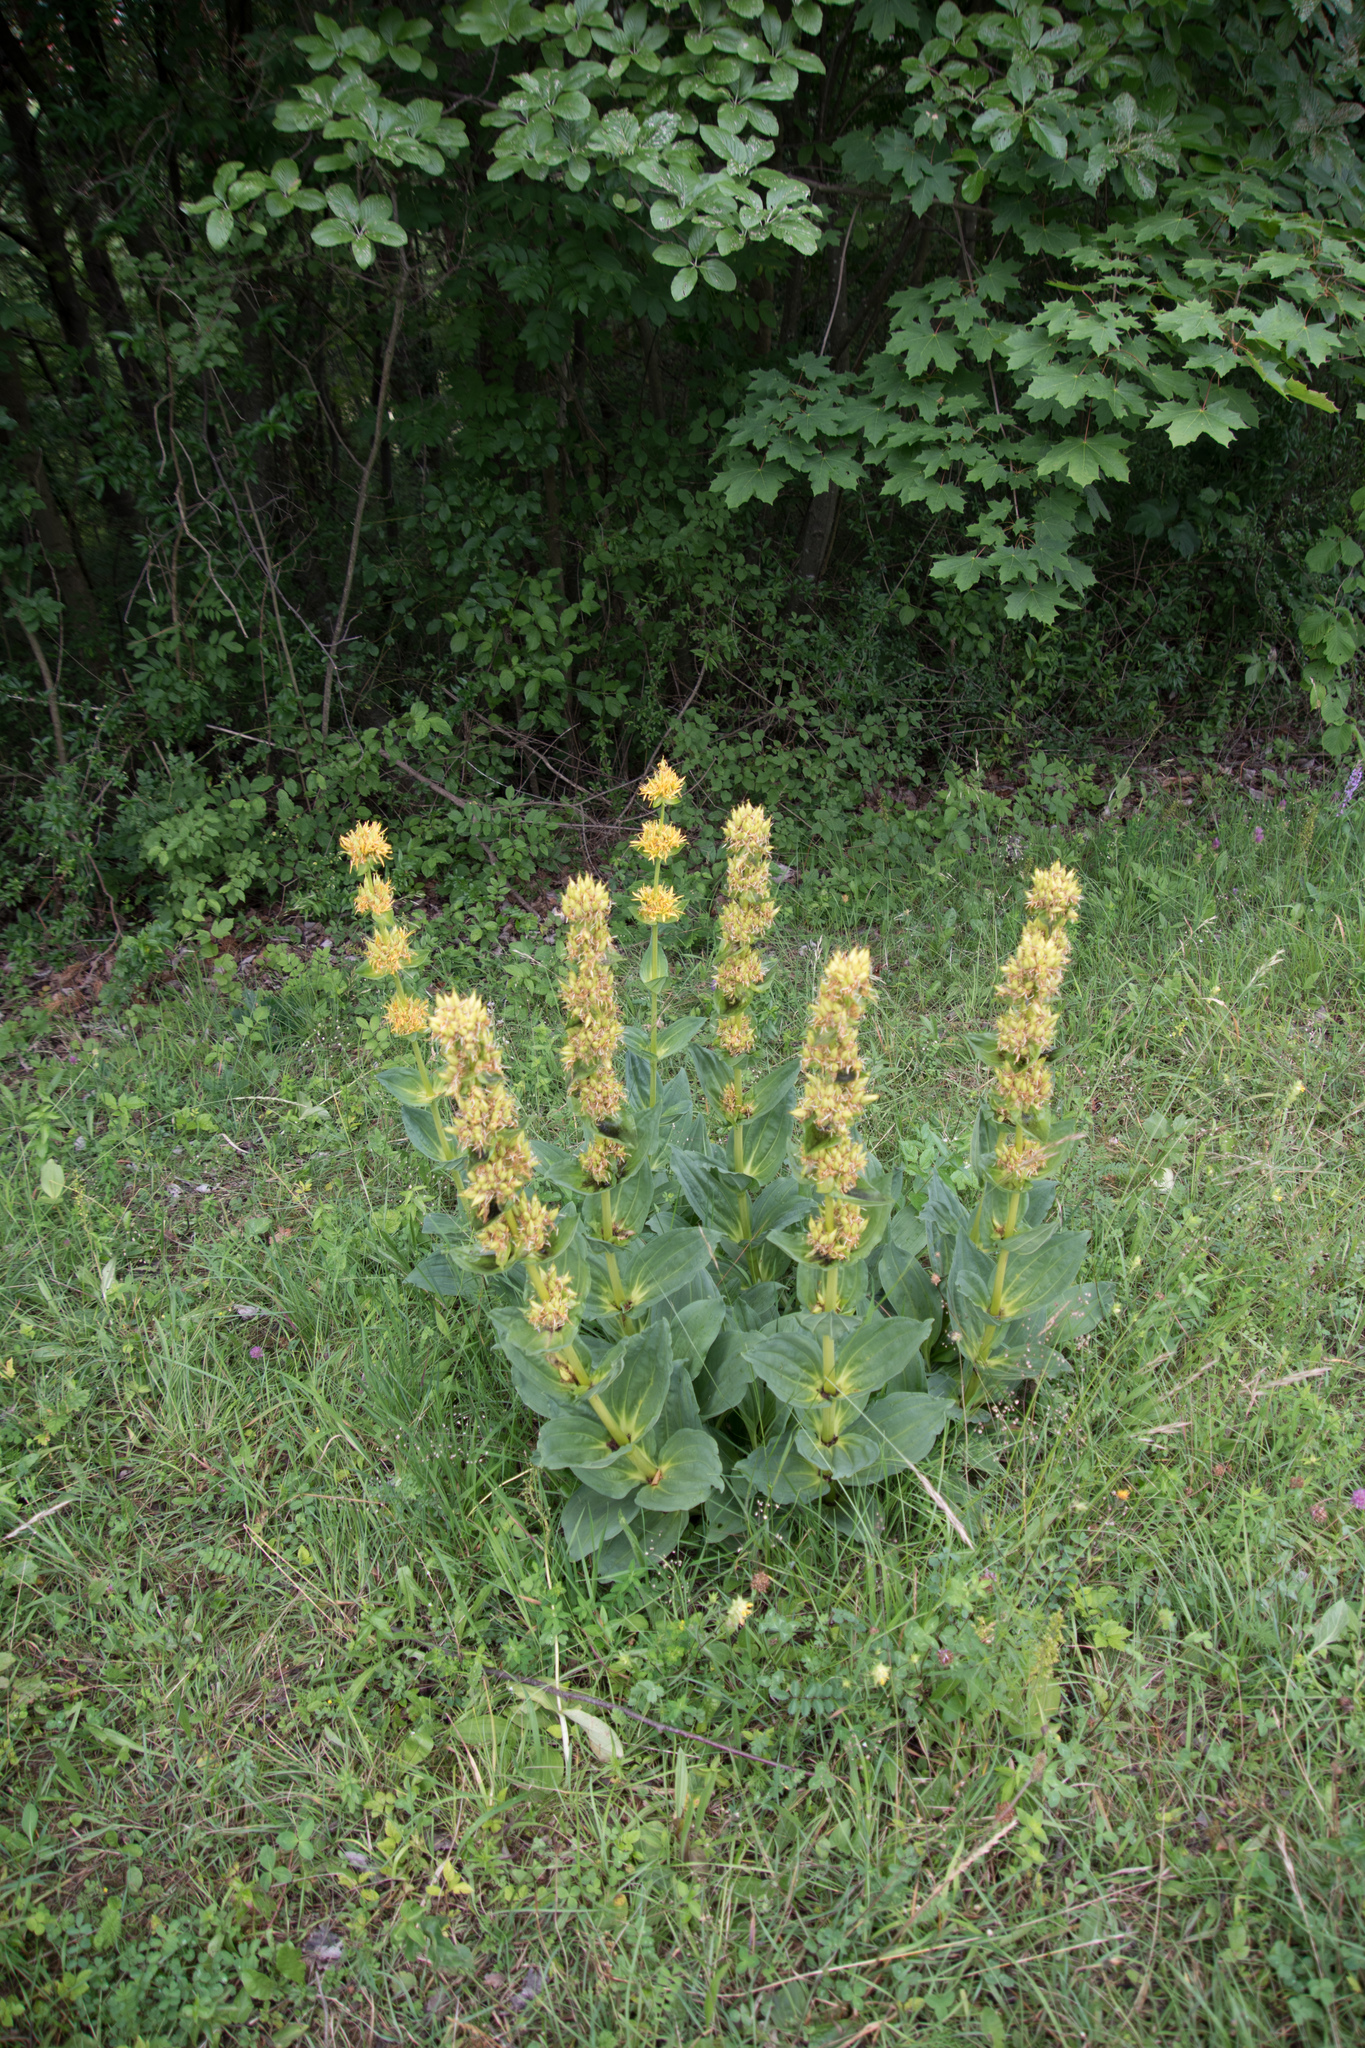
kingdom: Plantae
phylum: Tracheophyta
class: Magnoliopsida
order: Gentianales
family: Gentianaceae
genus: Gentiana
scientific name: Gentiana lutea
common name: Great yellow gentian
